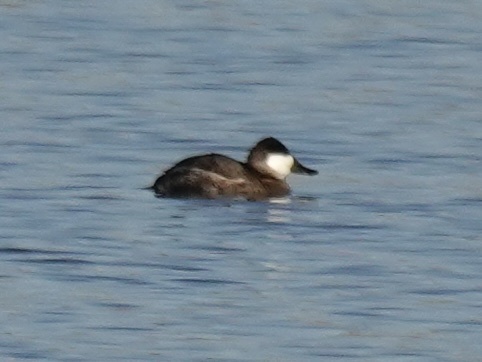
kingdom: Animalia
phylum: Chordata
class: Aves
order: Anseriformes
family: Anatidae
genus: Oxyura
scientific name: Oxyura jamaicensis
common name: Ruddy duck
